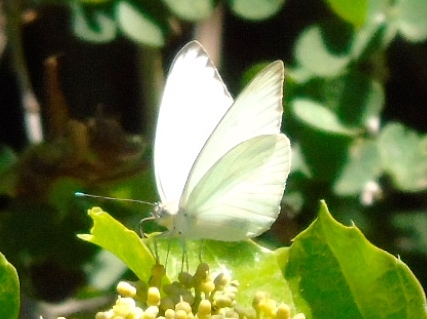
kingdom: Animalia
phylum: Arthropoda
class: Insecta
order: Lepidoptera
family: Pieridae
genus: Ascia
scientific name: Ascia monuste
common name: Great southern white
